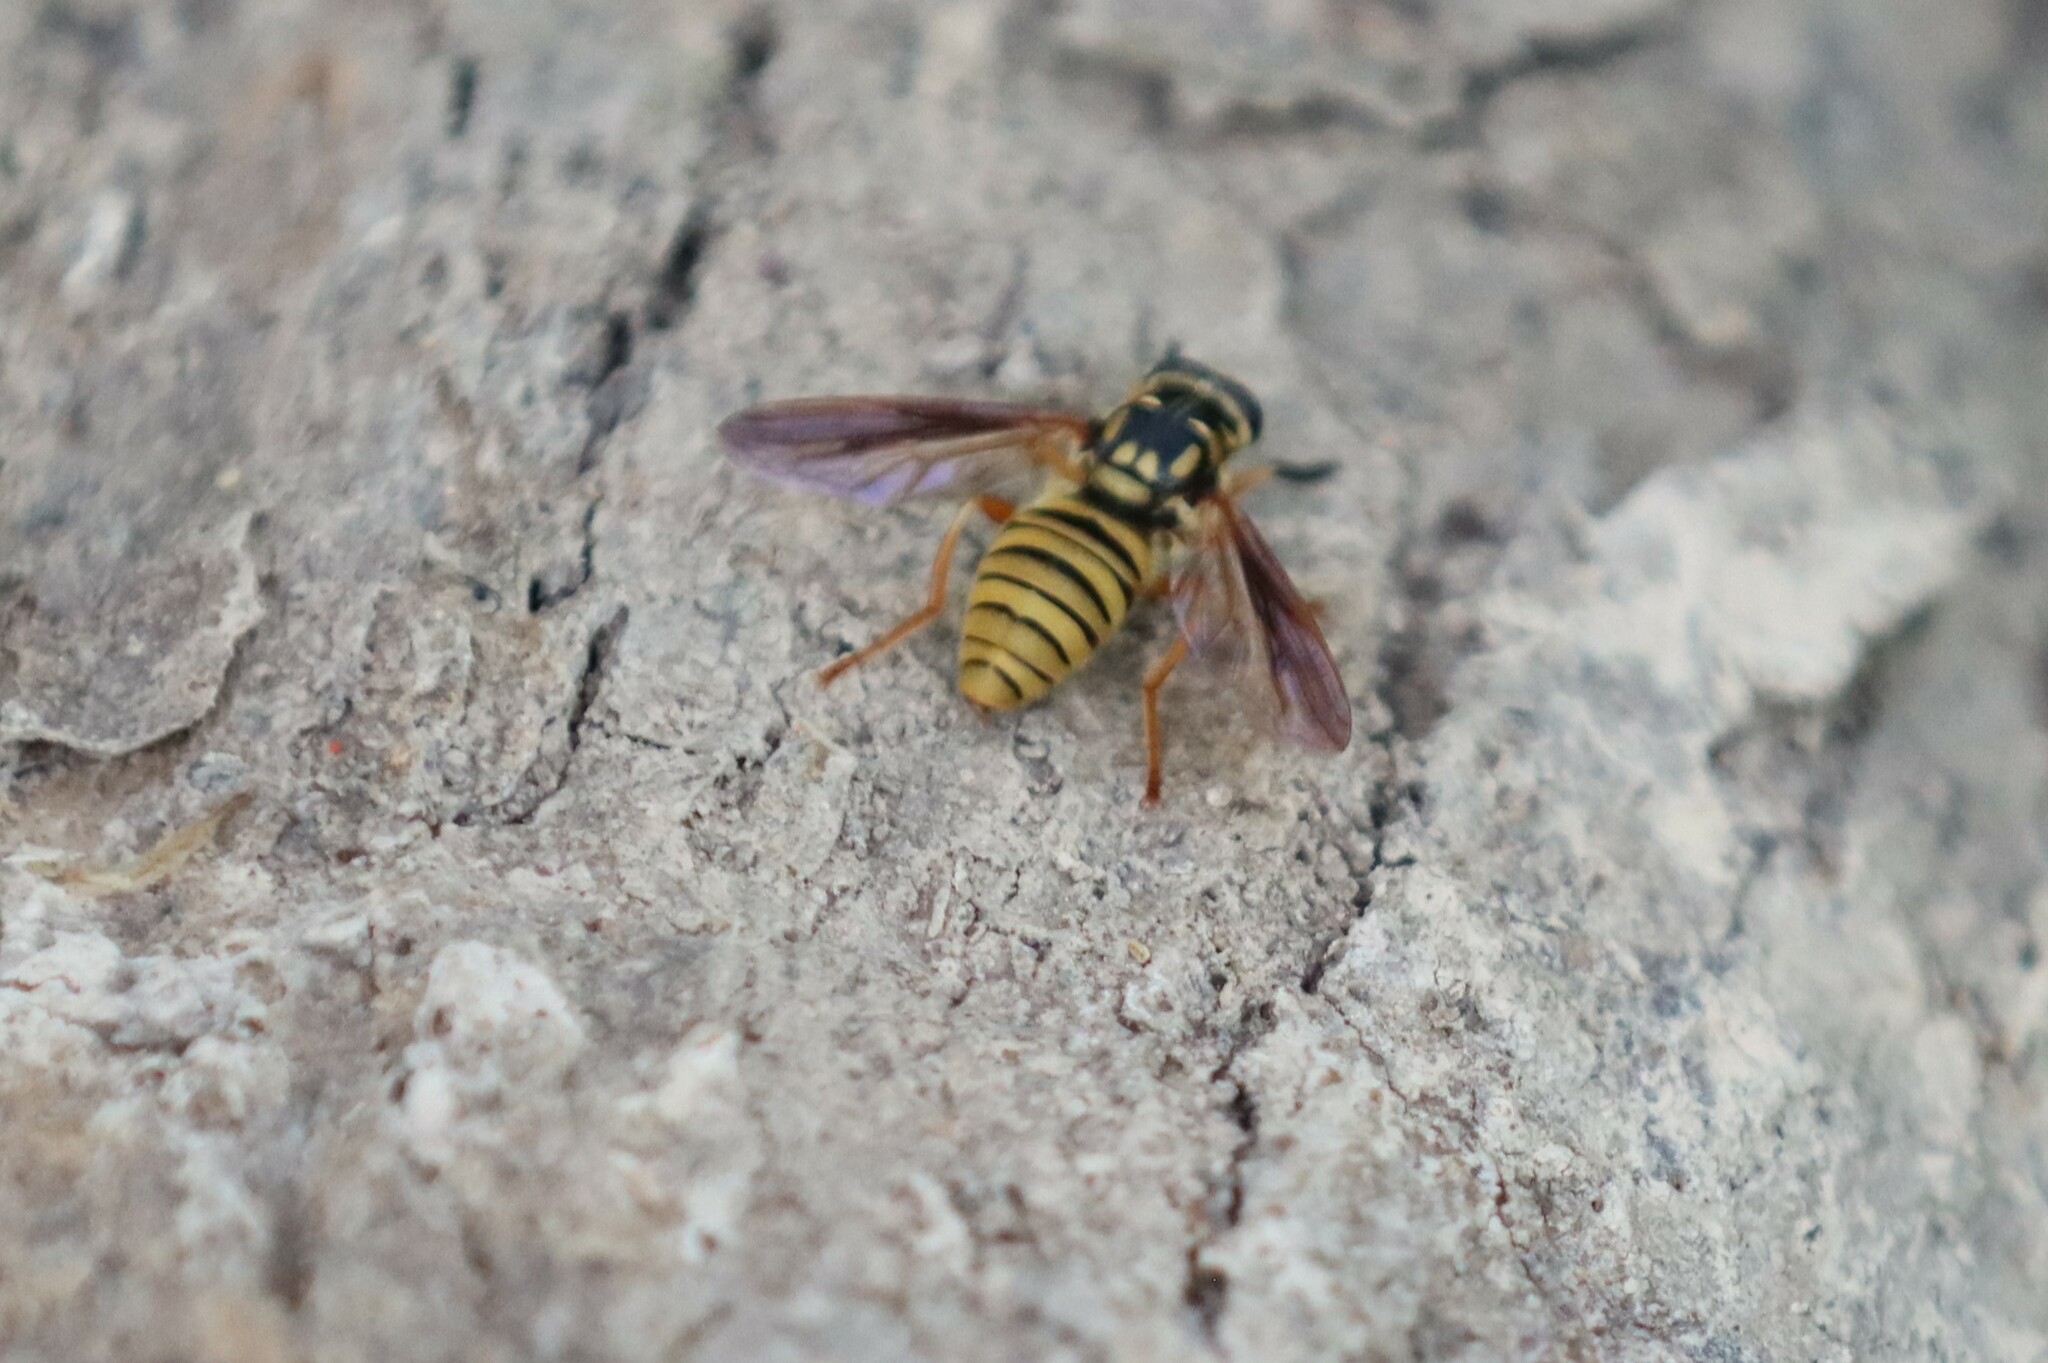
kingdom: Animalia
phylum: Arthropoda
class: Insecta
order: Diptera
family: Syrphidae
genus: Temnostoma
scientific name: Temnostoma daochum
